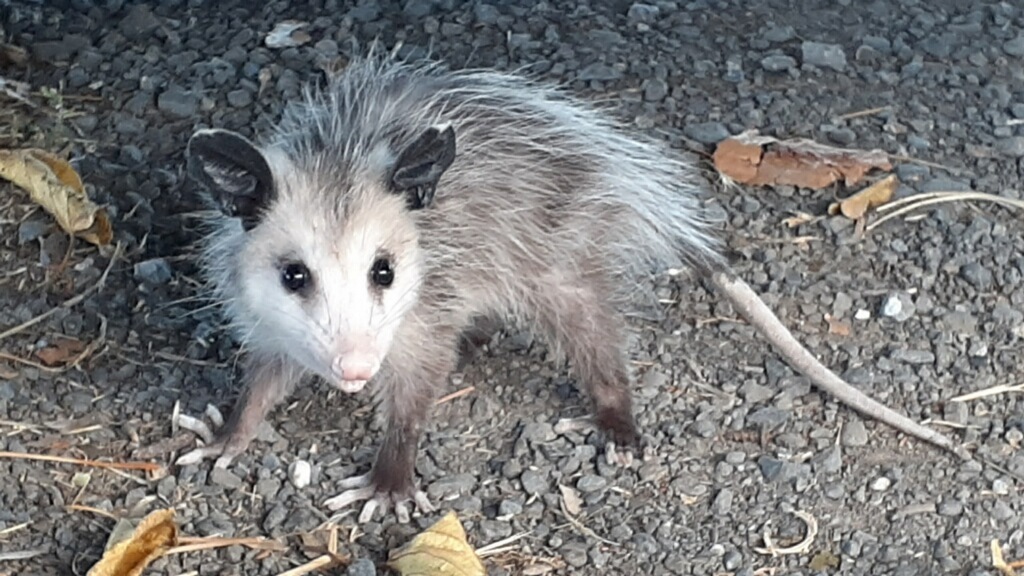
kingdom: Animalia
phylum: Chordata
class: Mammalia
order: Didelphimorphia
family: Didelphidae
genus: Didelphis
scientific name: Didelphis virginiana
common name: Virginia opossum
